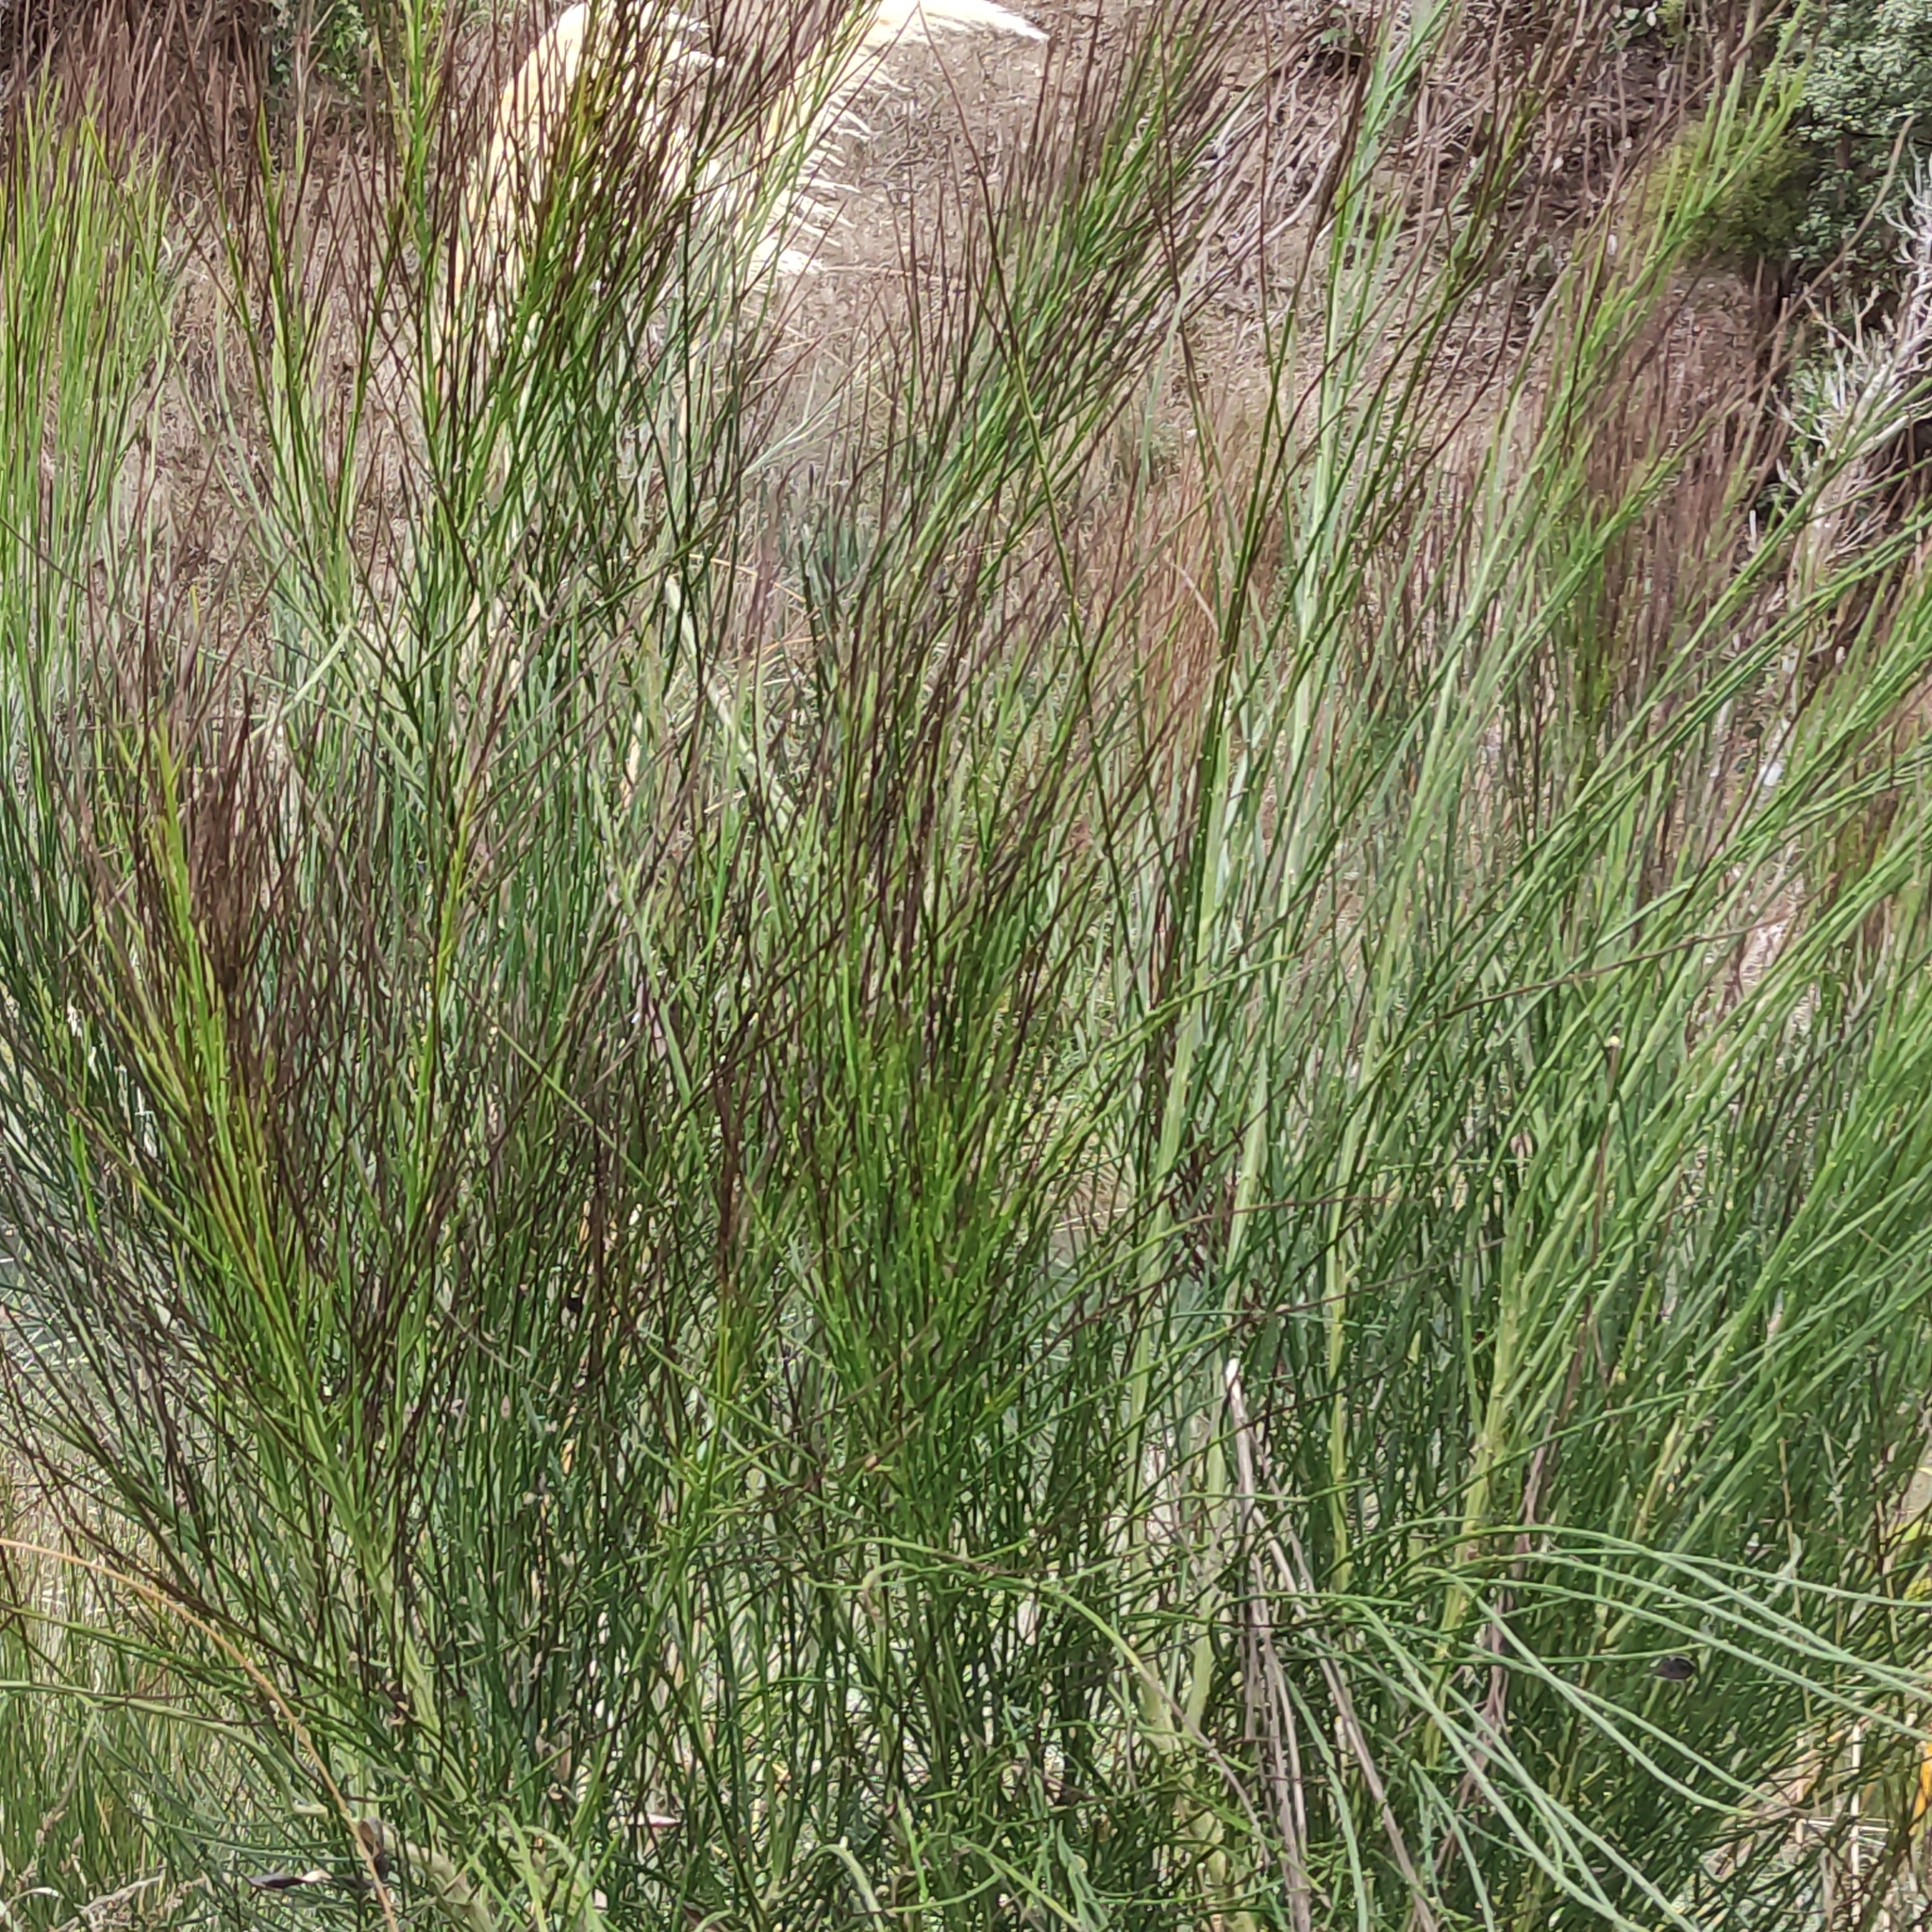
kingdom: Plantae
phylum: Tracheophyta
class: Magnoliopsida
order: Fabales
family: Fabaceae
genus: Cytisus
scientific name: Cytisus scoparius
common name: Scotch broom
